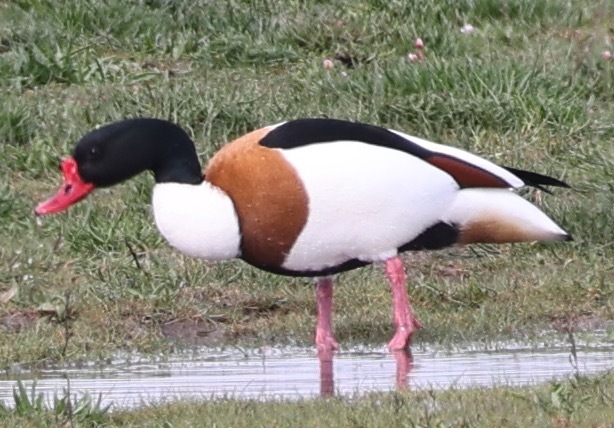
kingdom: Animalia
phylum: Chordata
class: Aves
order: Anseriformes
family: Anatidae
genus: Tadorna
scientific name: Tadorna tadorna
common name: Common shelduck
